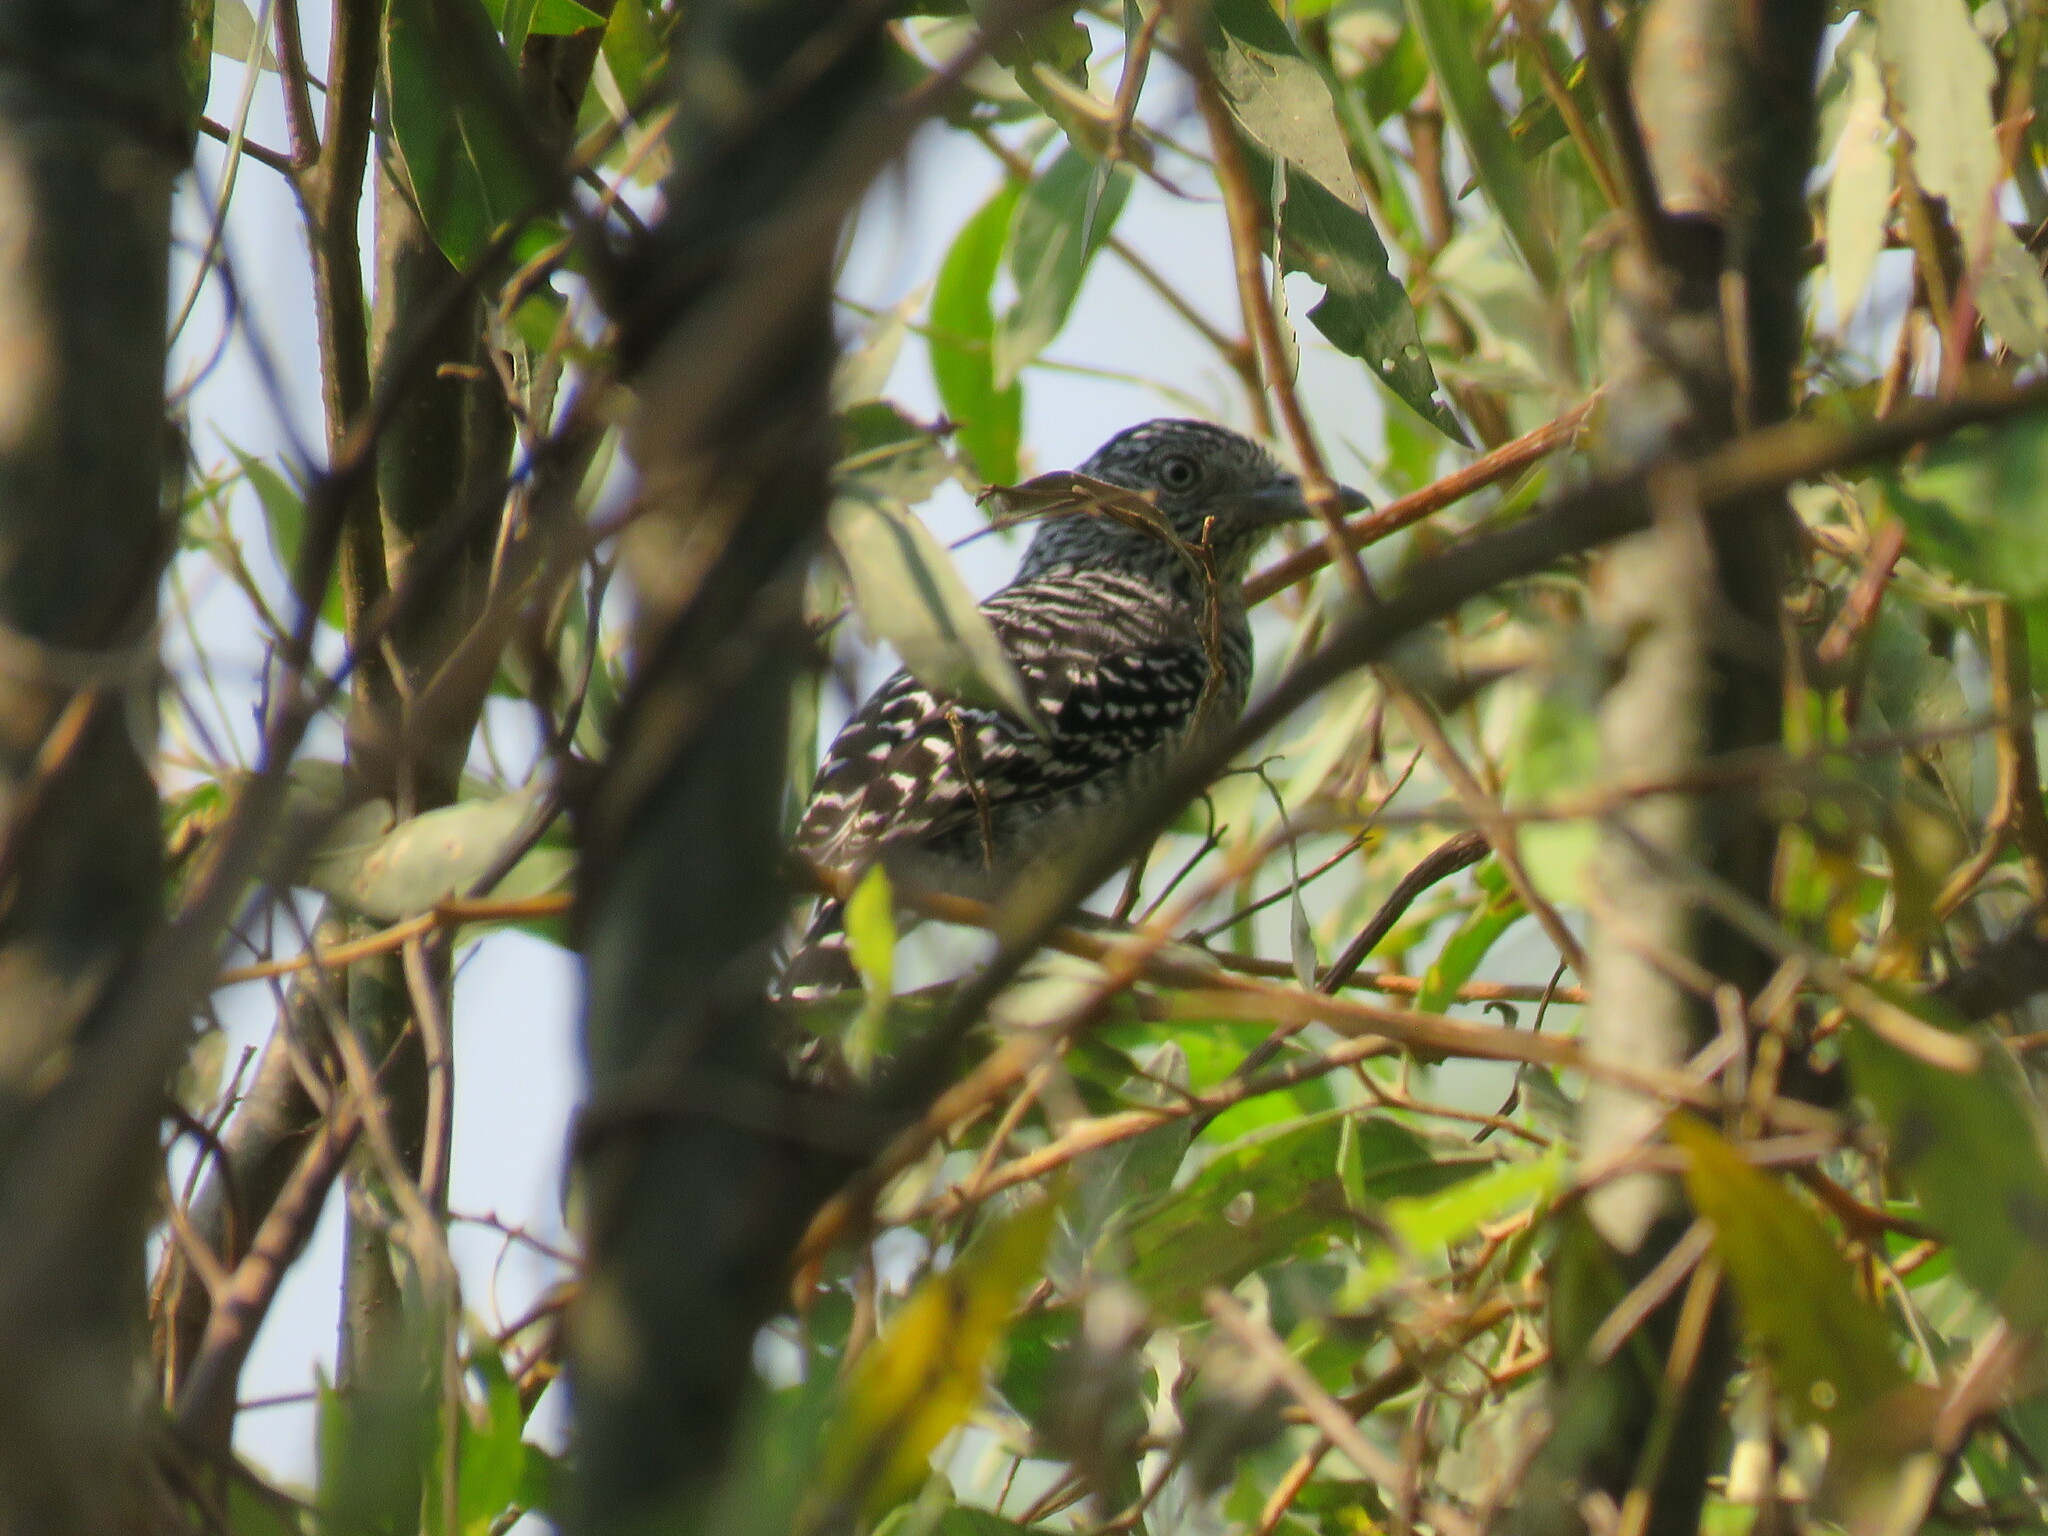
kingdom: Animalia
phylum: Chordata
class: Aves
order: Passeriformes
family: Thamnophilidae
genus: Thamnophilus
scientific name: Thamnophilus doliatus
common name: Barred antshrike
